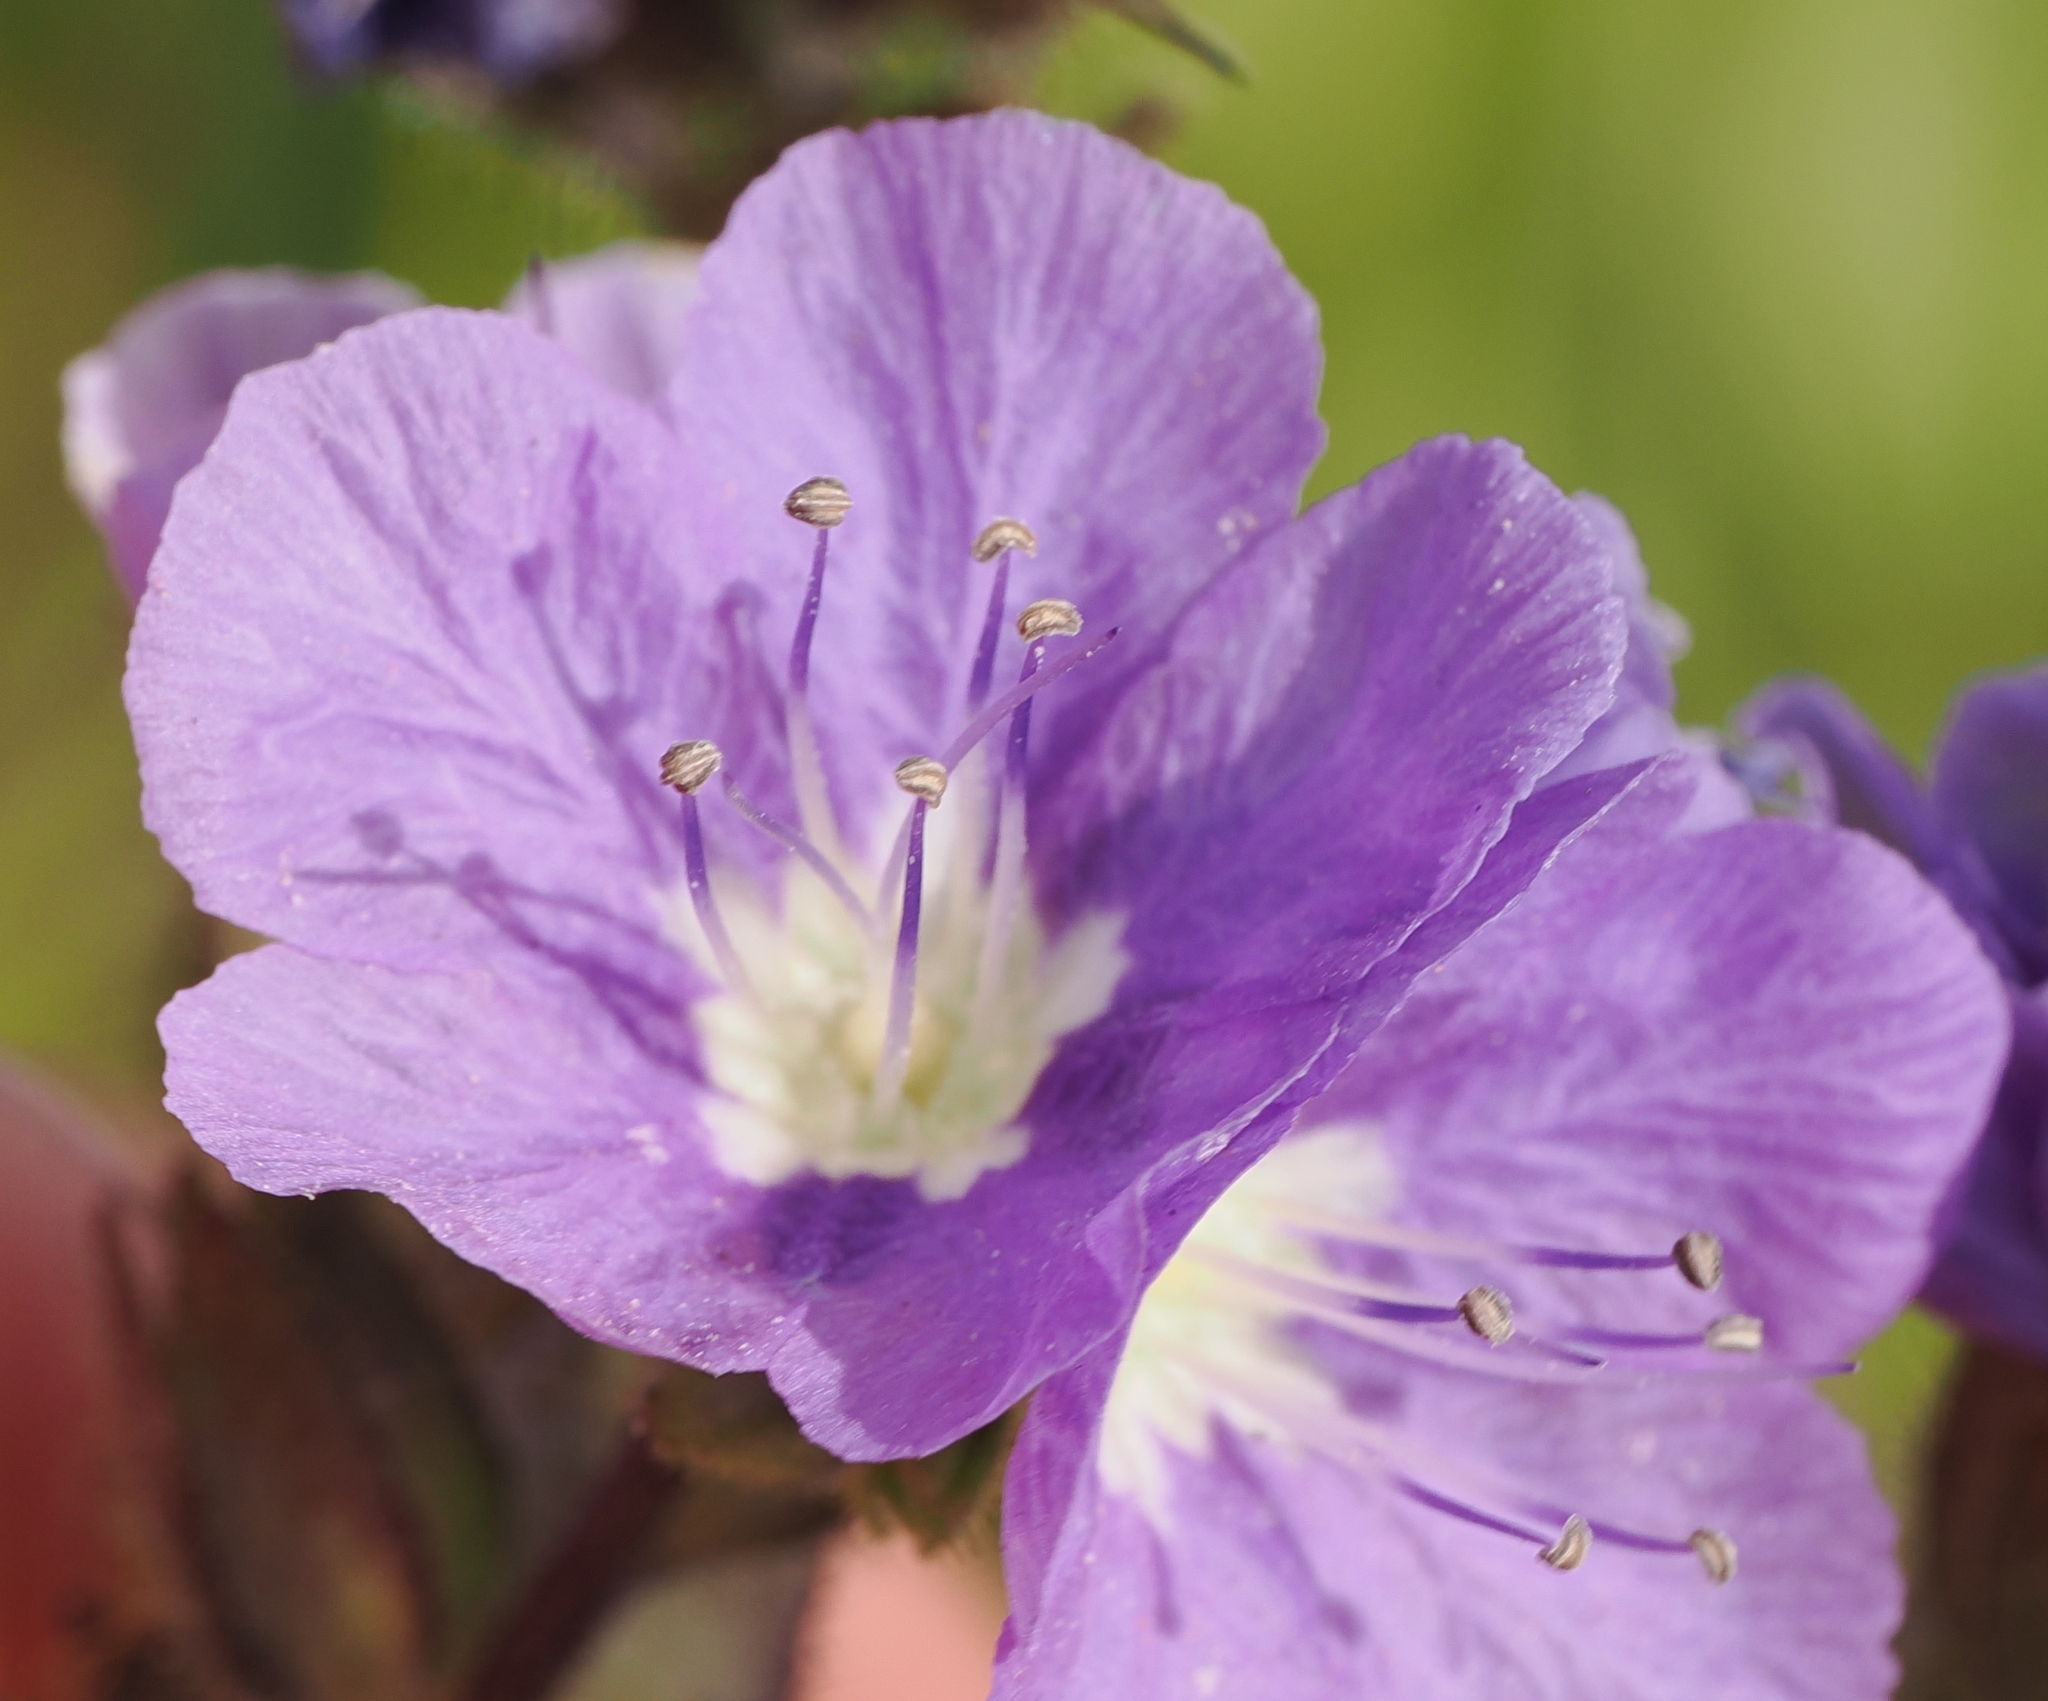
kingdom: Plantae
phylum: Tracheophyta
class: Magnoliopsida
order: Boraginales
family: Hydrophyllaceae
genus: Phacelia
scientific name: Phacelia ciliata
